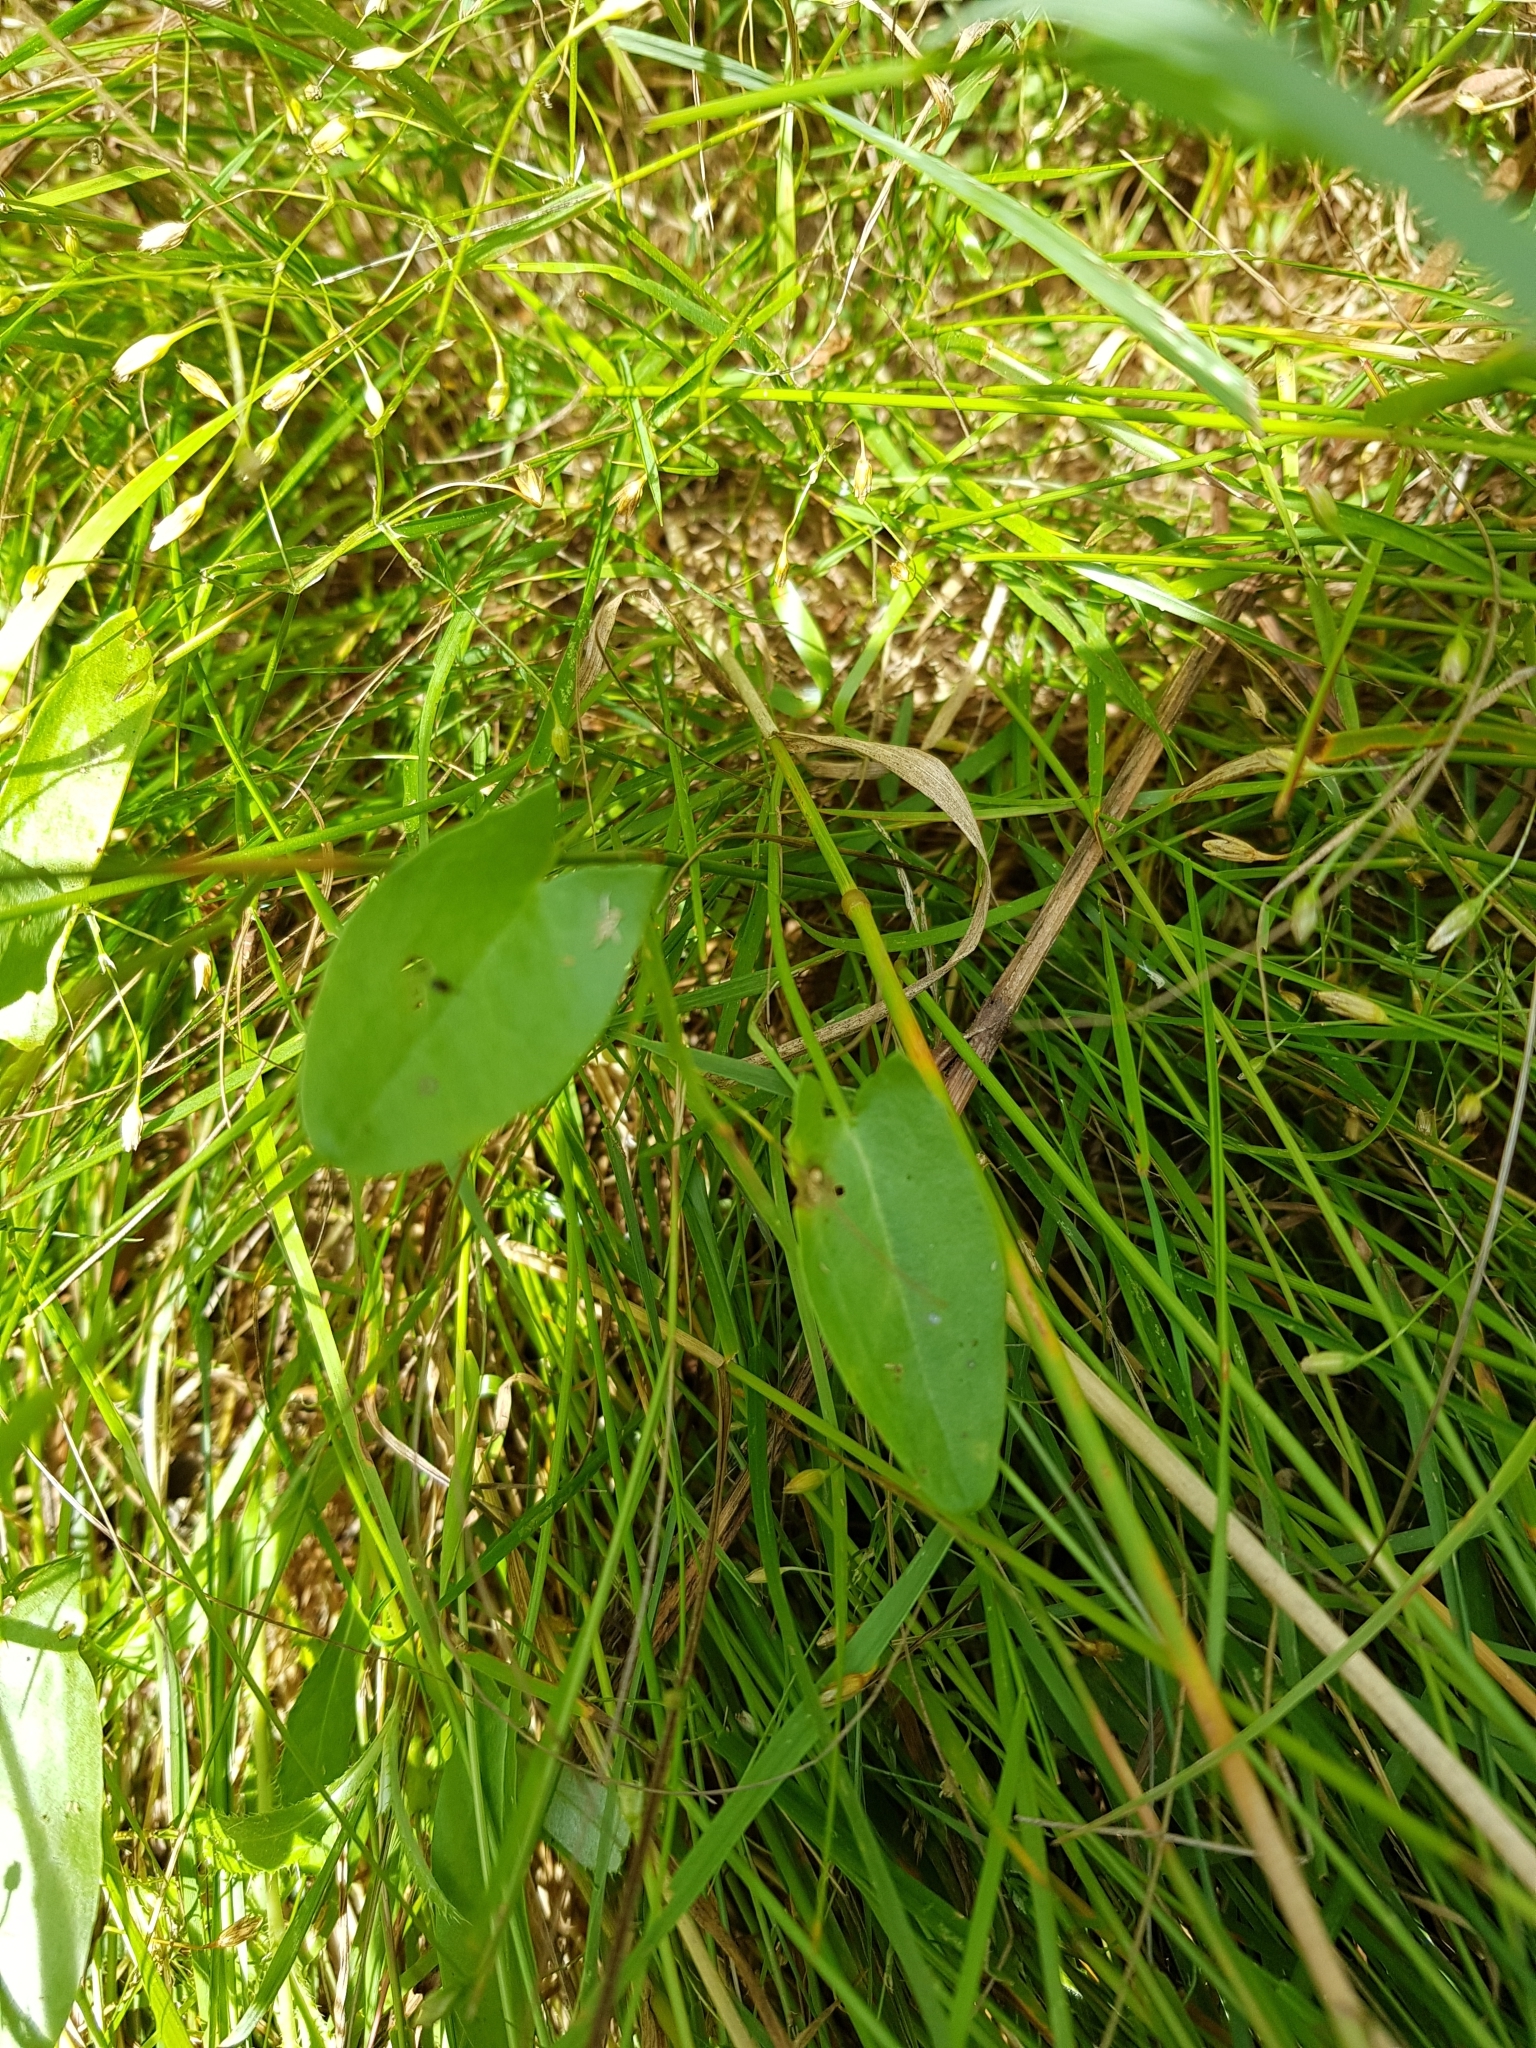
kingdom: Plantae
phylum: Tracheophyta
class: Magnoliopsida
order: Caryophyllales
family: Polygonaceae
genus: Rumex
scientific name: Rumex acetosa
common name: Garden sorrel
